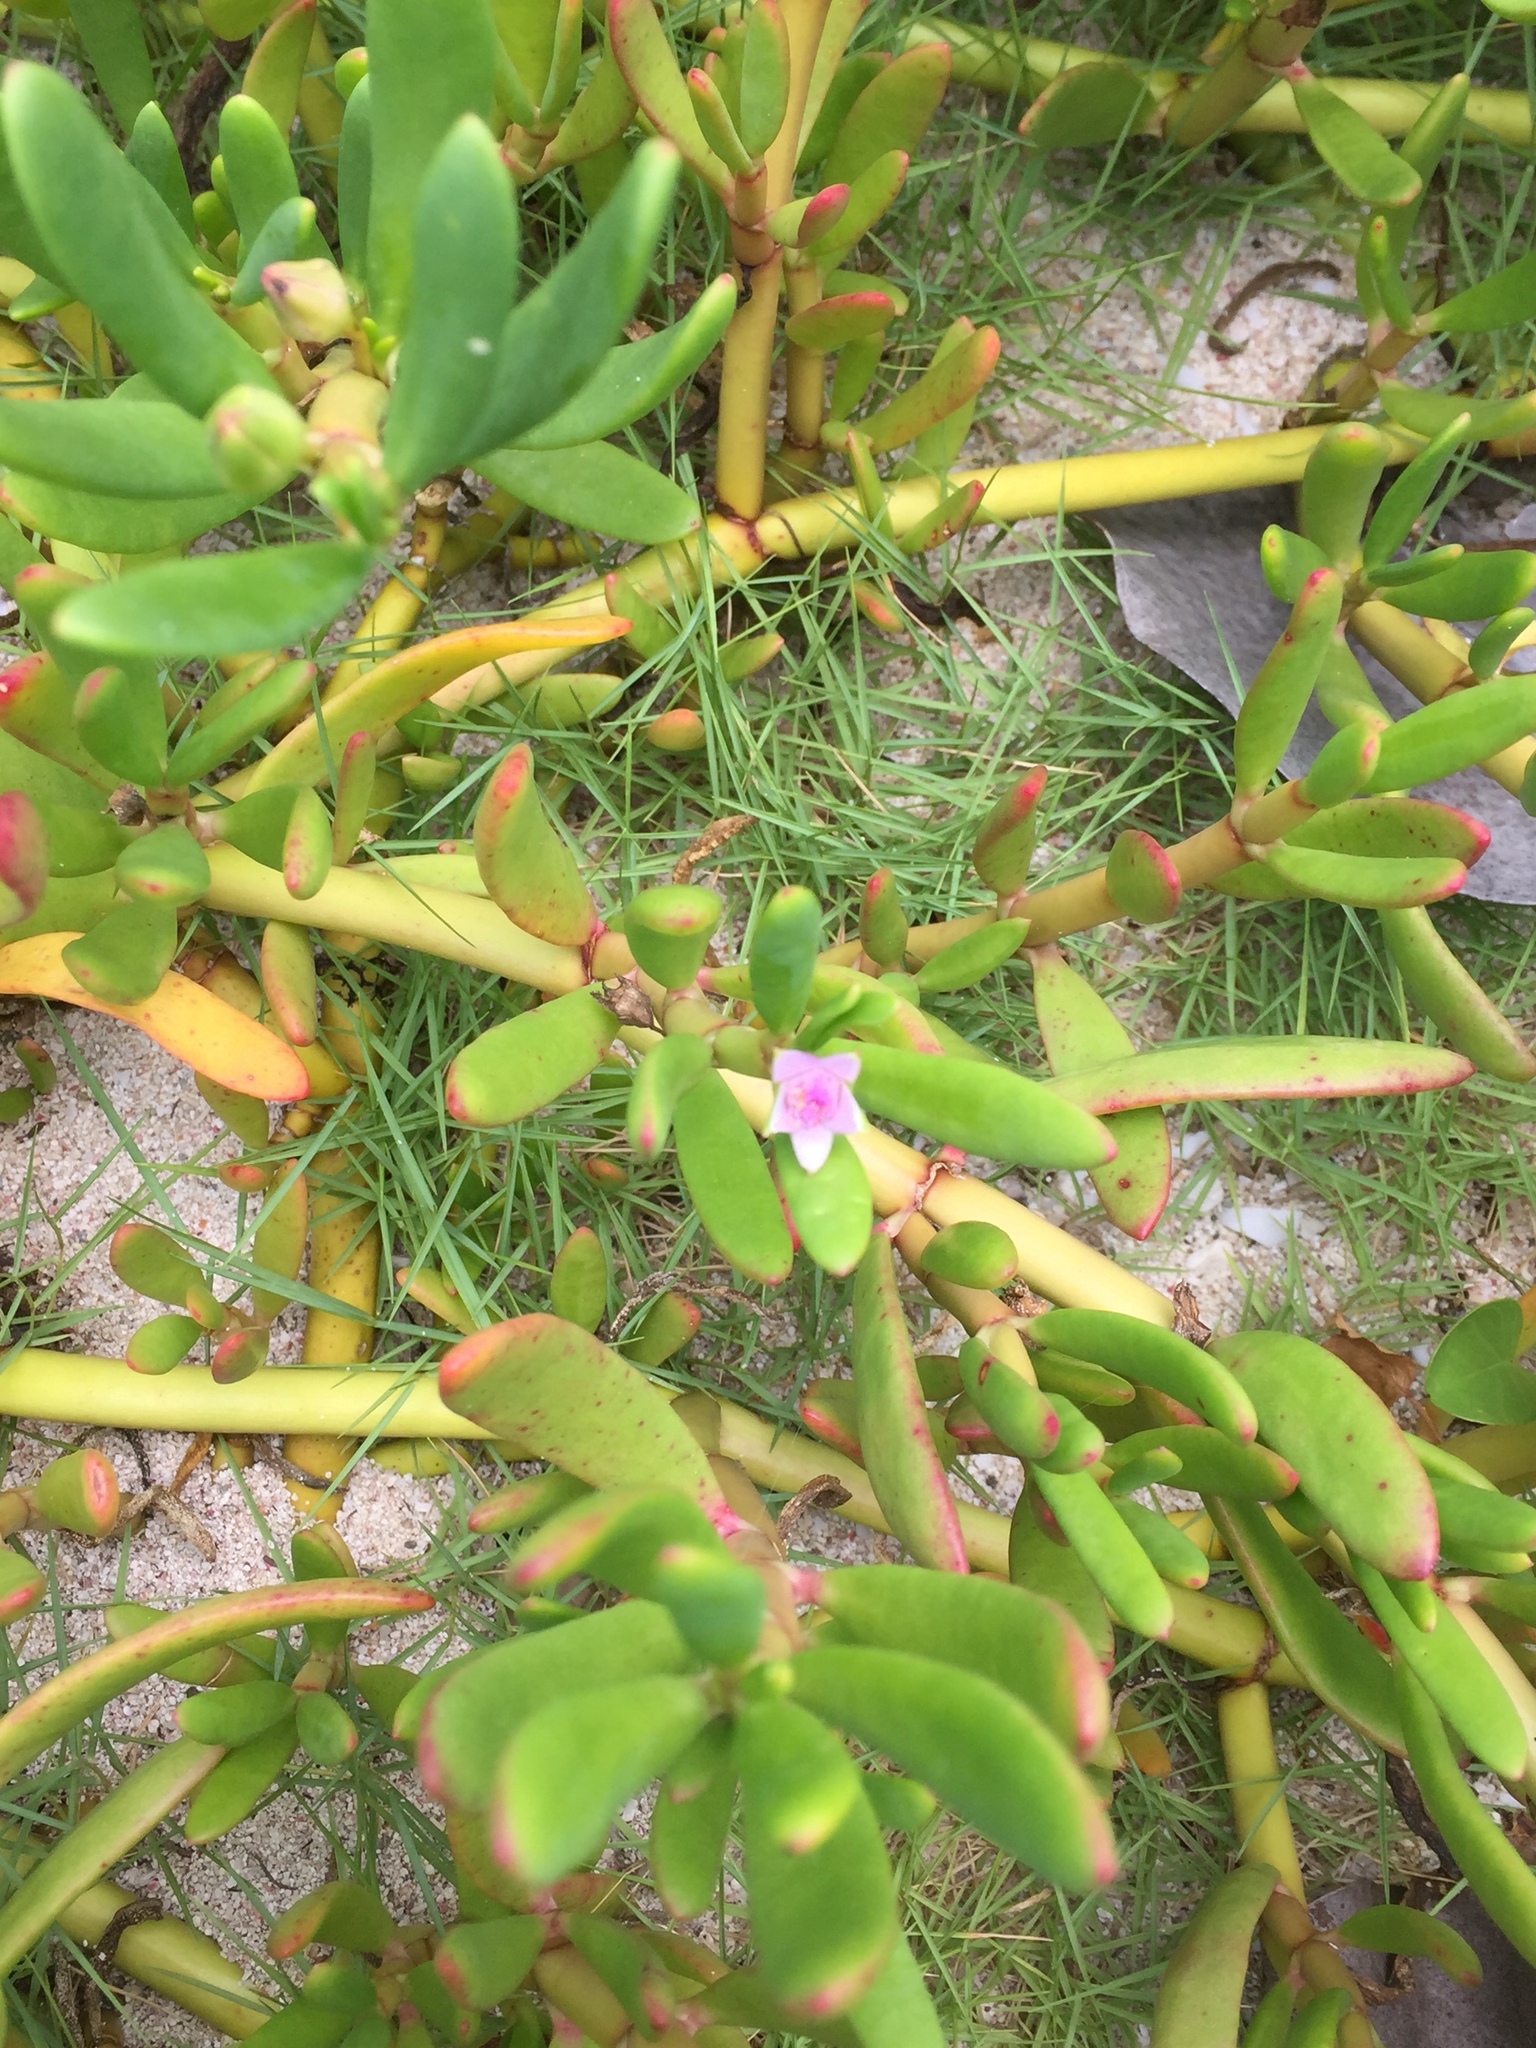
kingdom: Plantae
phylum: Tracheophyta
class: Magnoliopsida
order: Caryophyllales
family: Aizoaceae
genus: Sesuvium
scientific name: Sesuvium portulacastrum
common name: Sea-purslane
